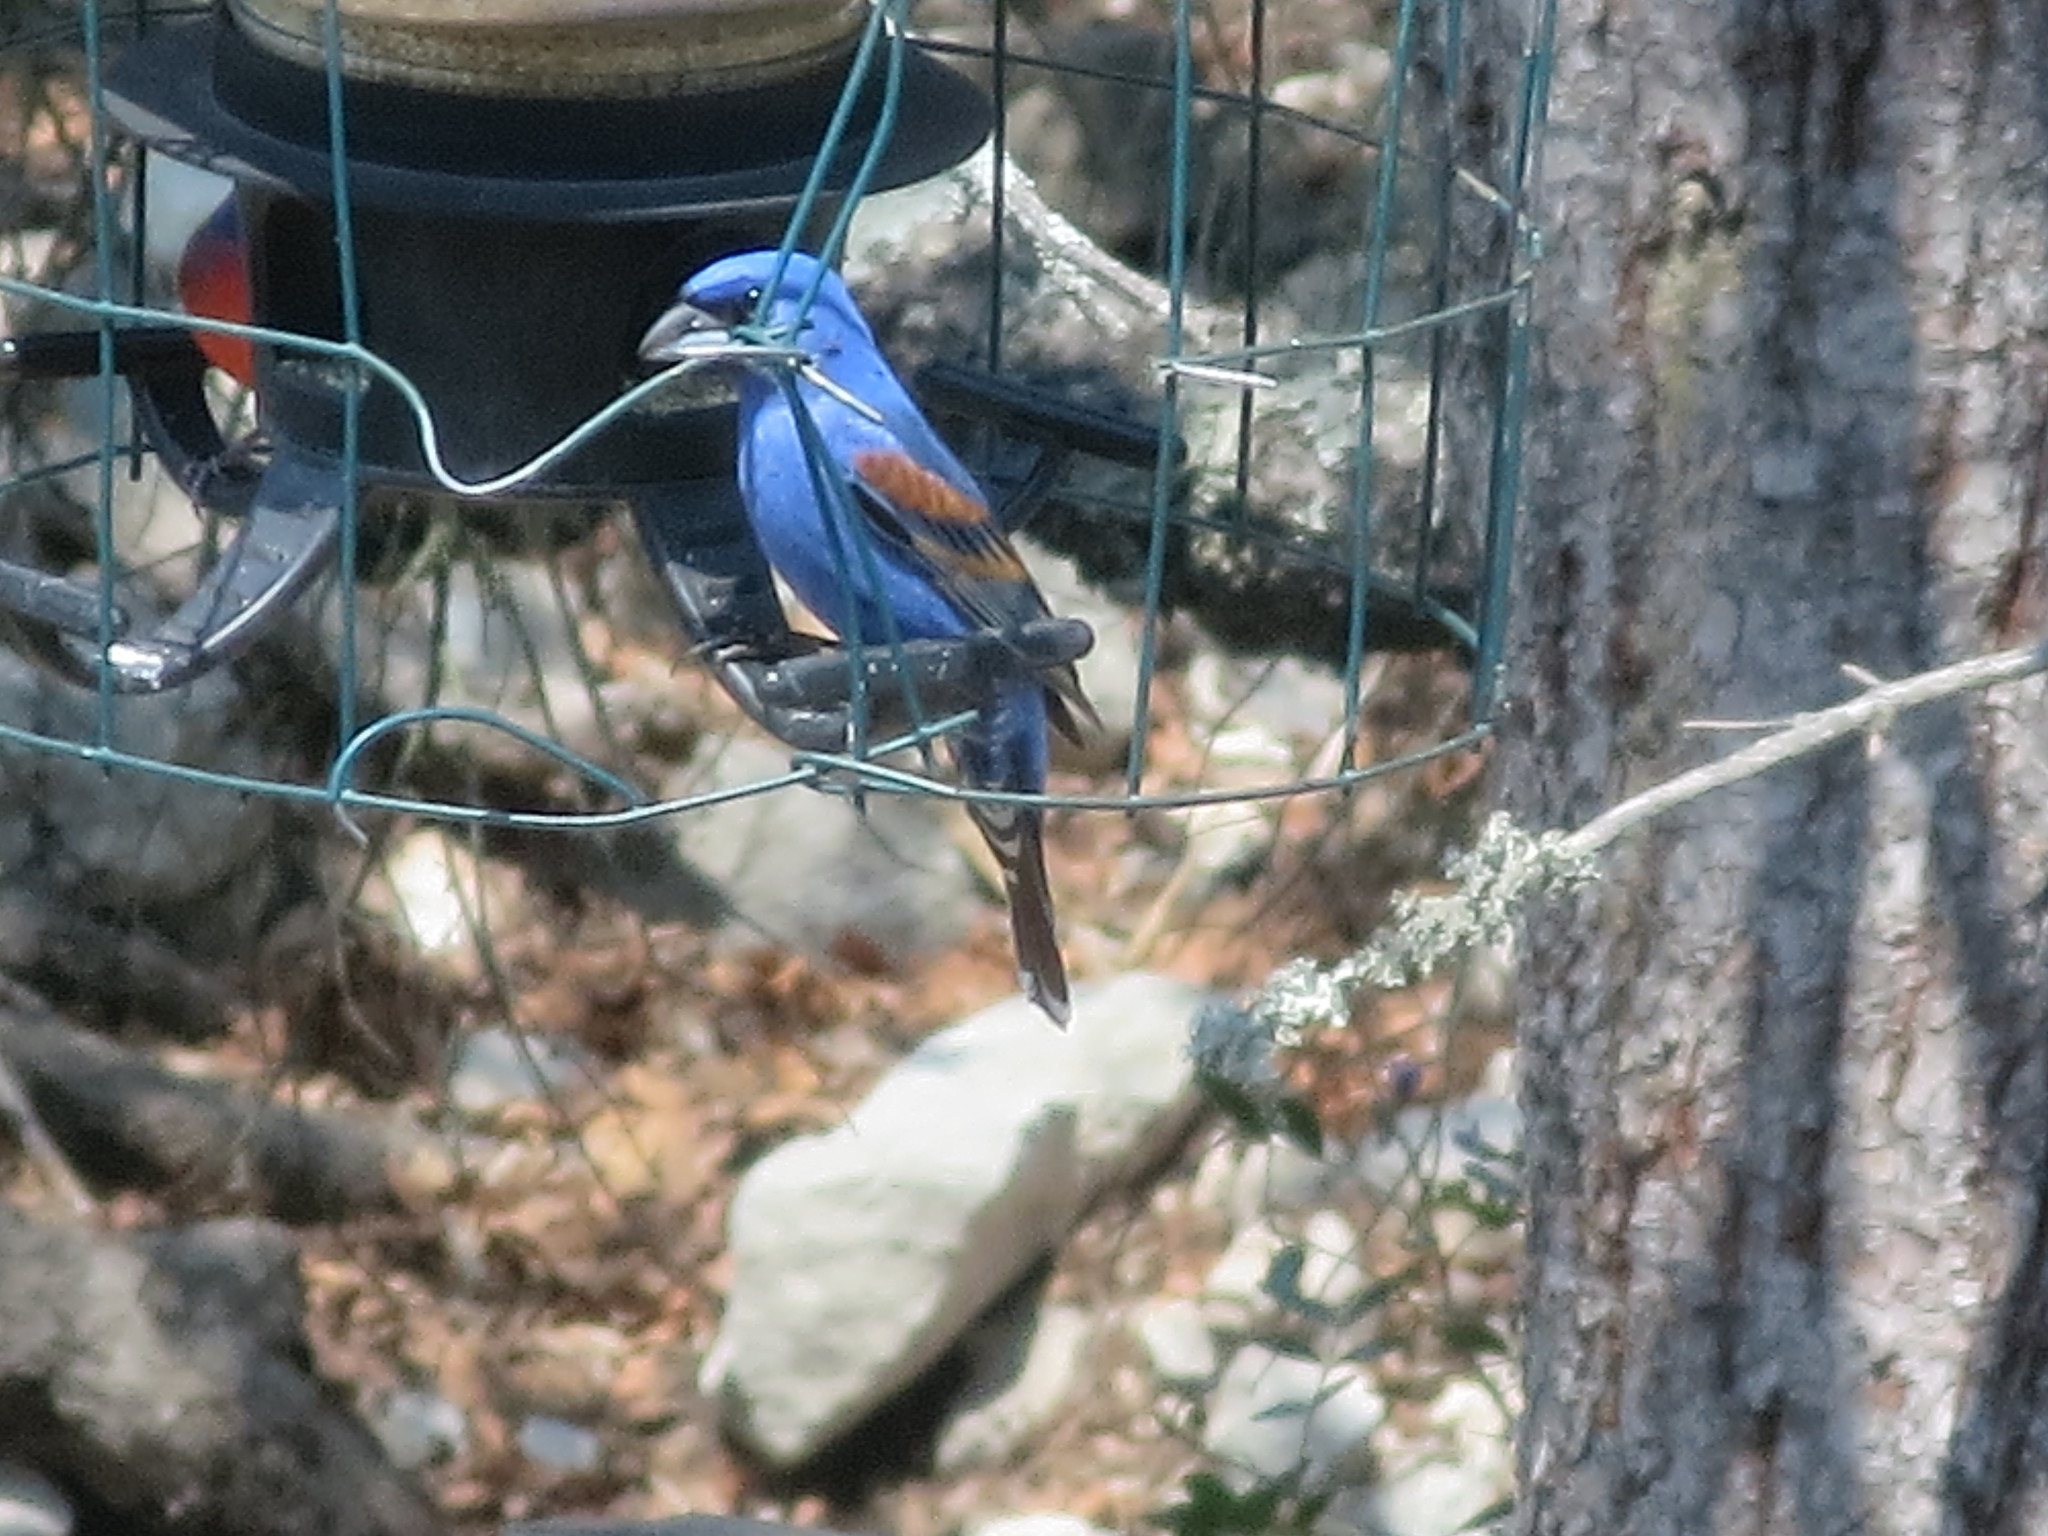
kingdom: Animalia
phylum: Chordata
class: Aves
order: Passeriformes
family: Cardinalidae
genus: Passerina
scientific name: Passerina caerulea
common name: Blue grosbeak
